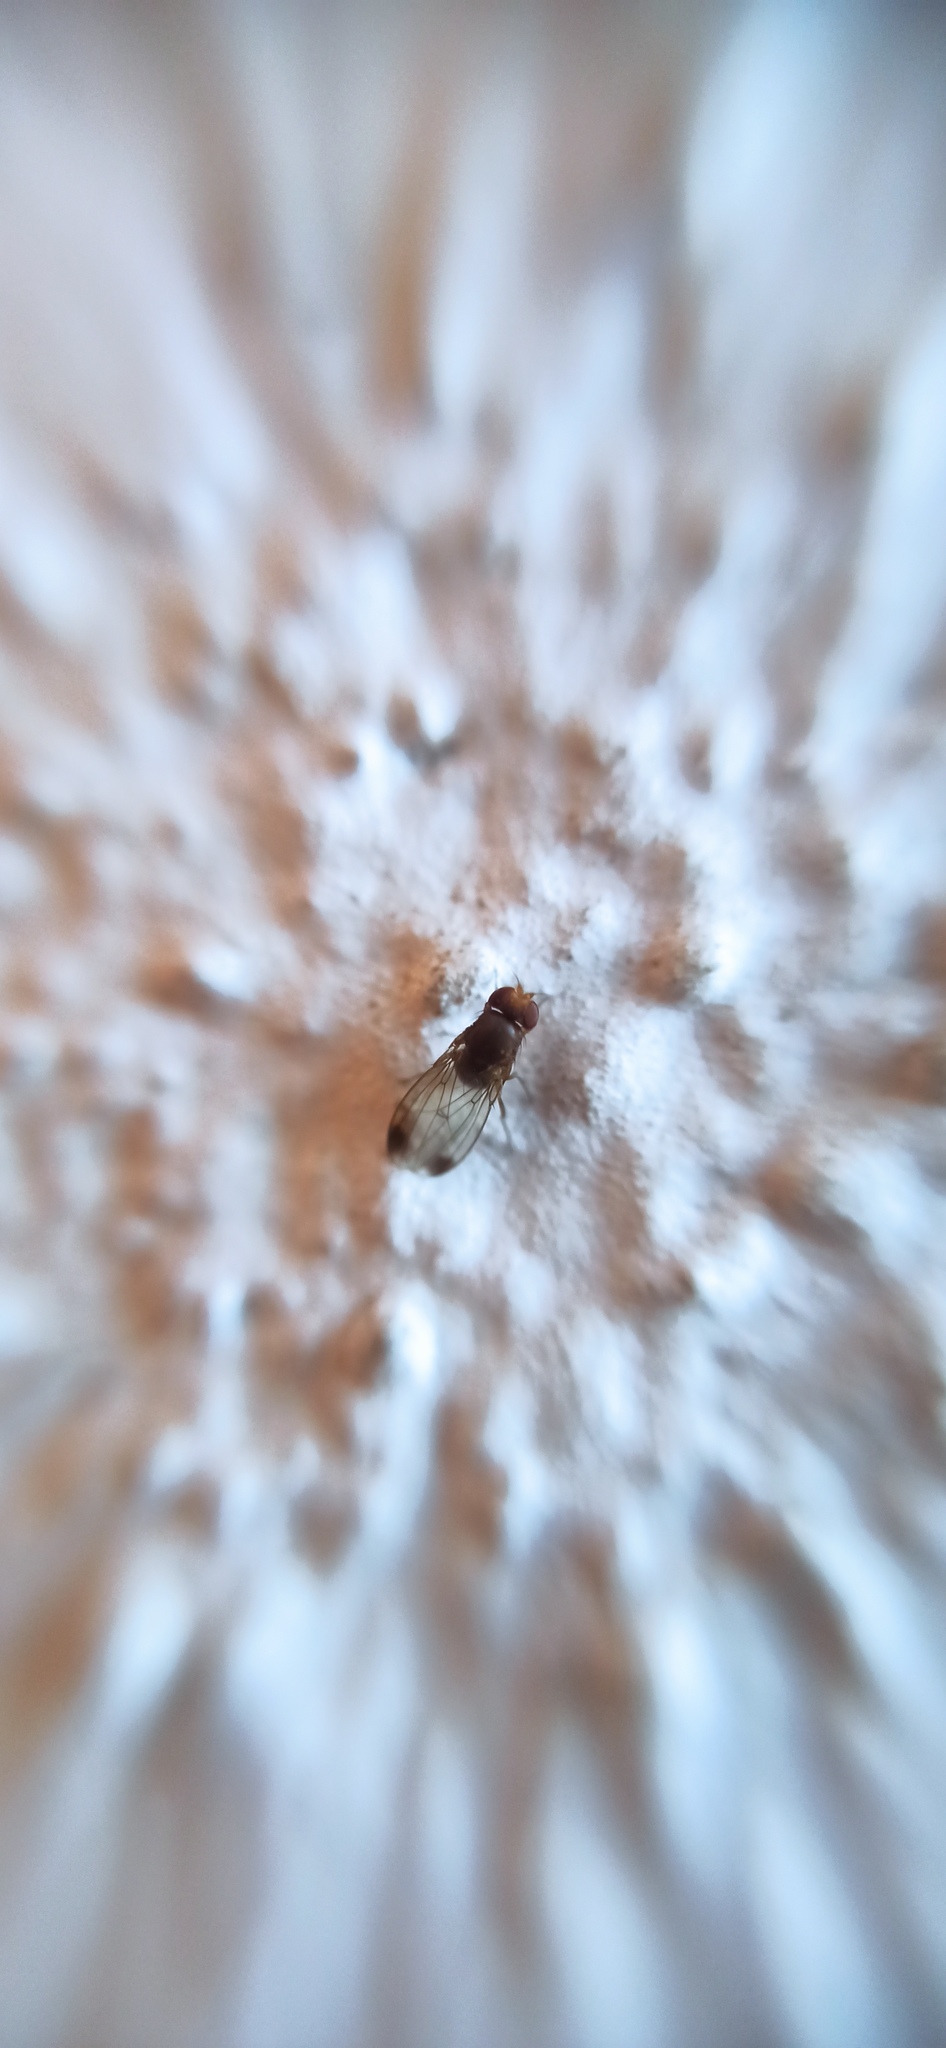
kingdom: Animalia
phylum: Arthropoda
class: Insecta
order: Diptera
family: Drosophilidae
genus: Drosophila
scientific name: Drosophila suzukii
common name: Spotted-wing drosophila
